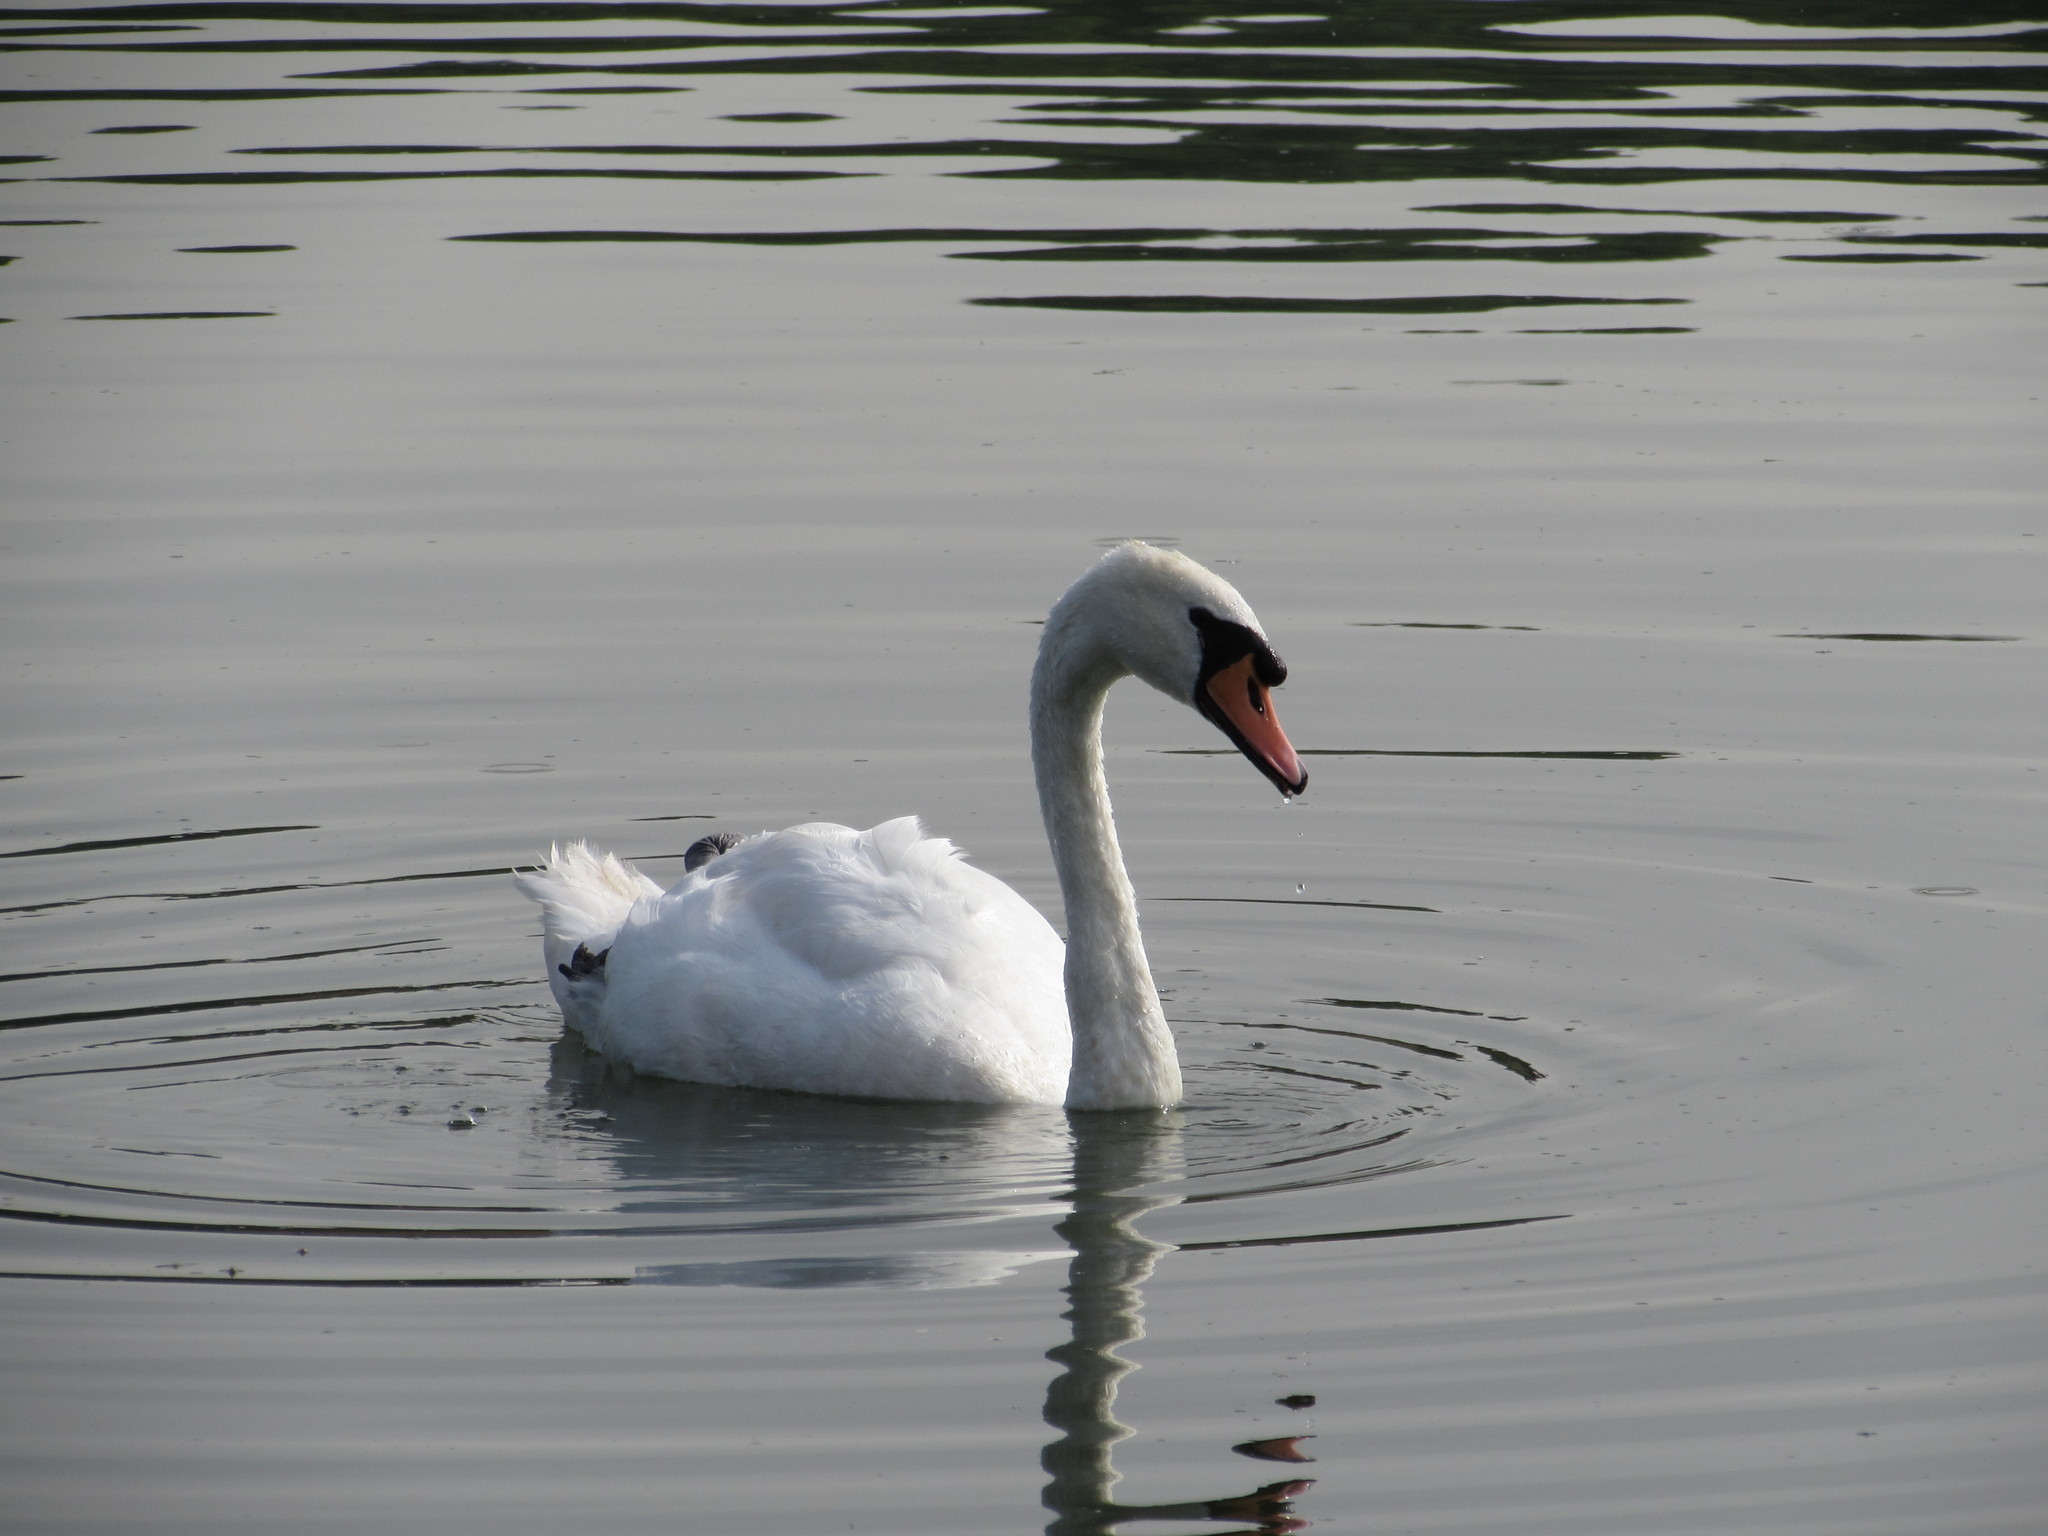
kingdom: Animalia
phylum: Chordata
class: Aves
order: Anseriformes
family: Anatidae
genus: Cygnus
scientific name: Cygnus olor
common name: Mute swan
